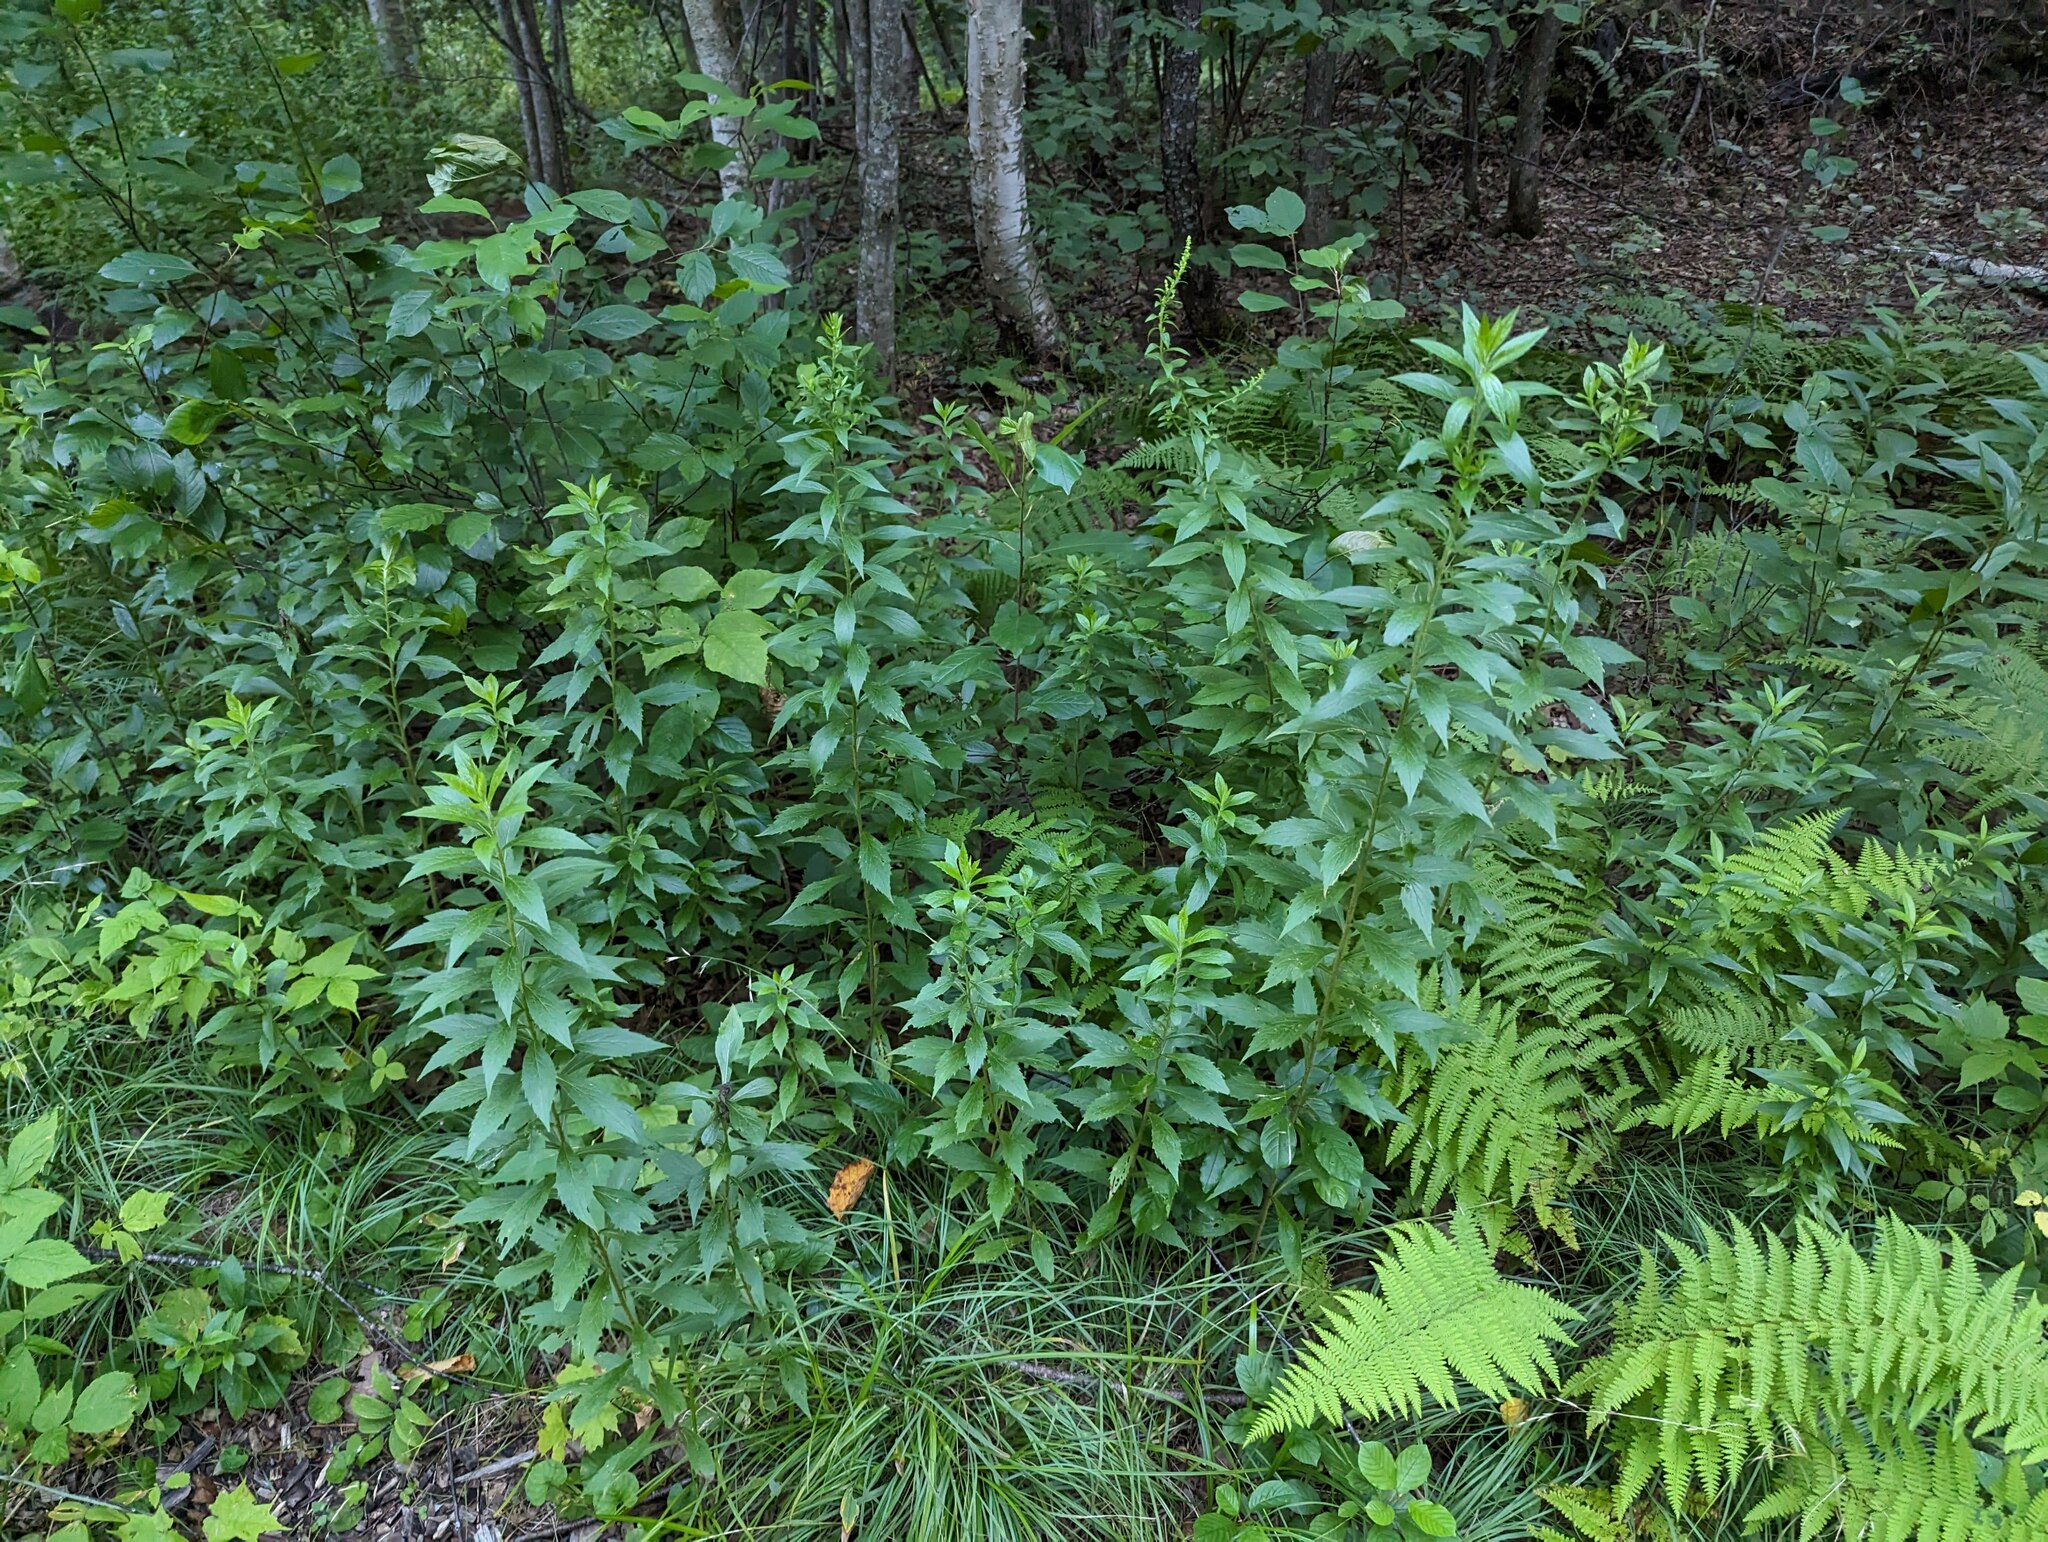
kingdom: Plantae
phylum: Tracheophyta
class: Magnoliopsida
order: Asterales
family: Asteraceae
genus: Solidago
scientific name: Solidago rugosa
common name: Rough-stemmed goldenrod
